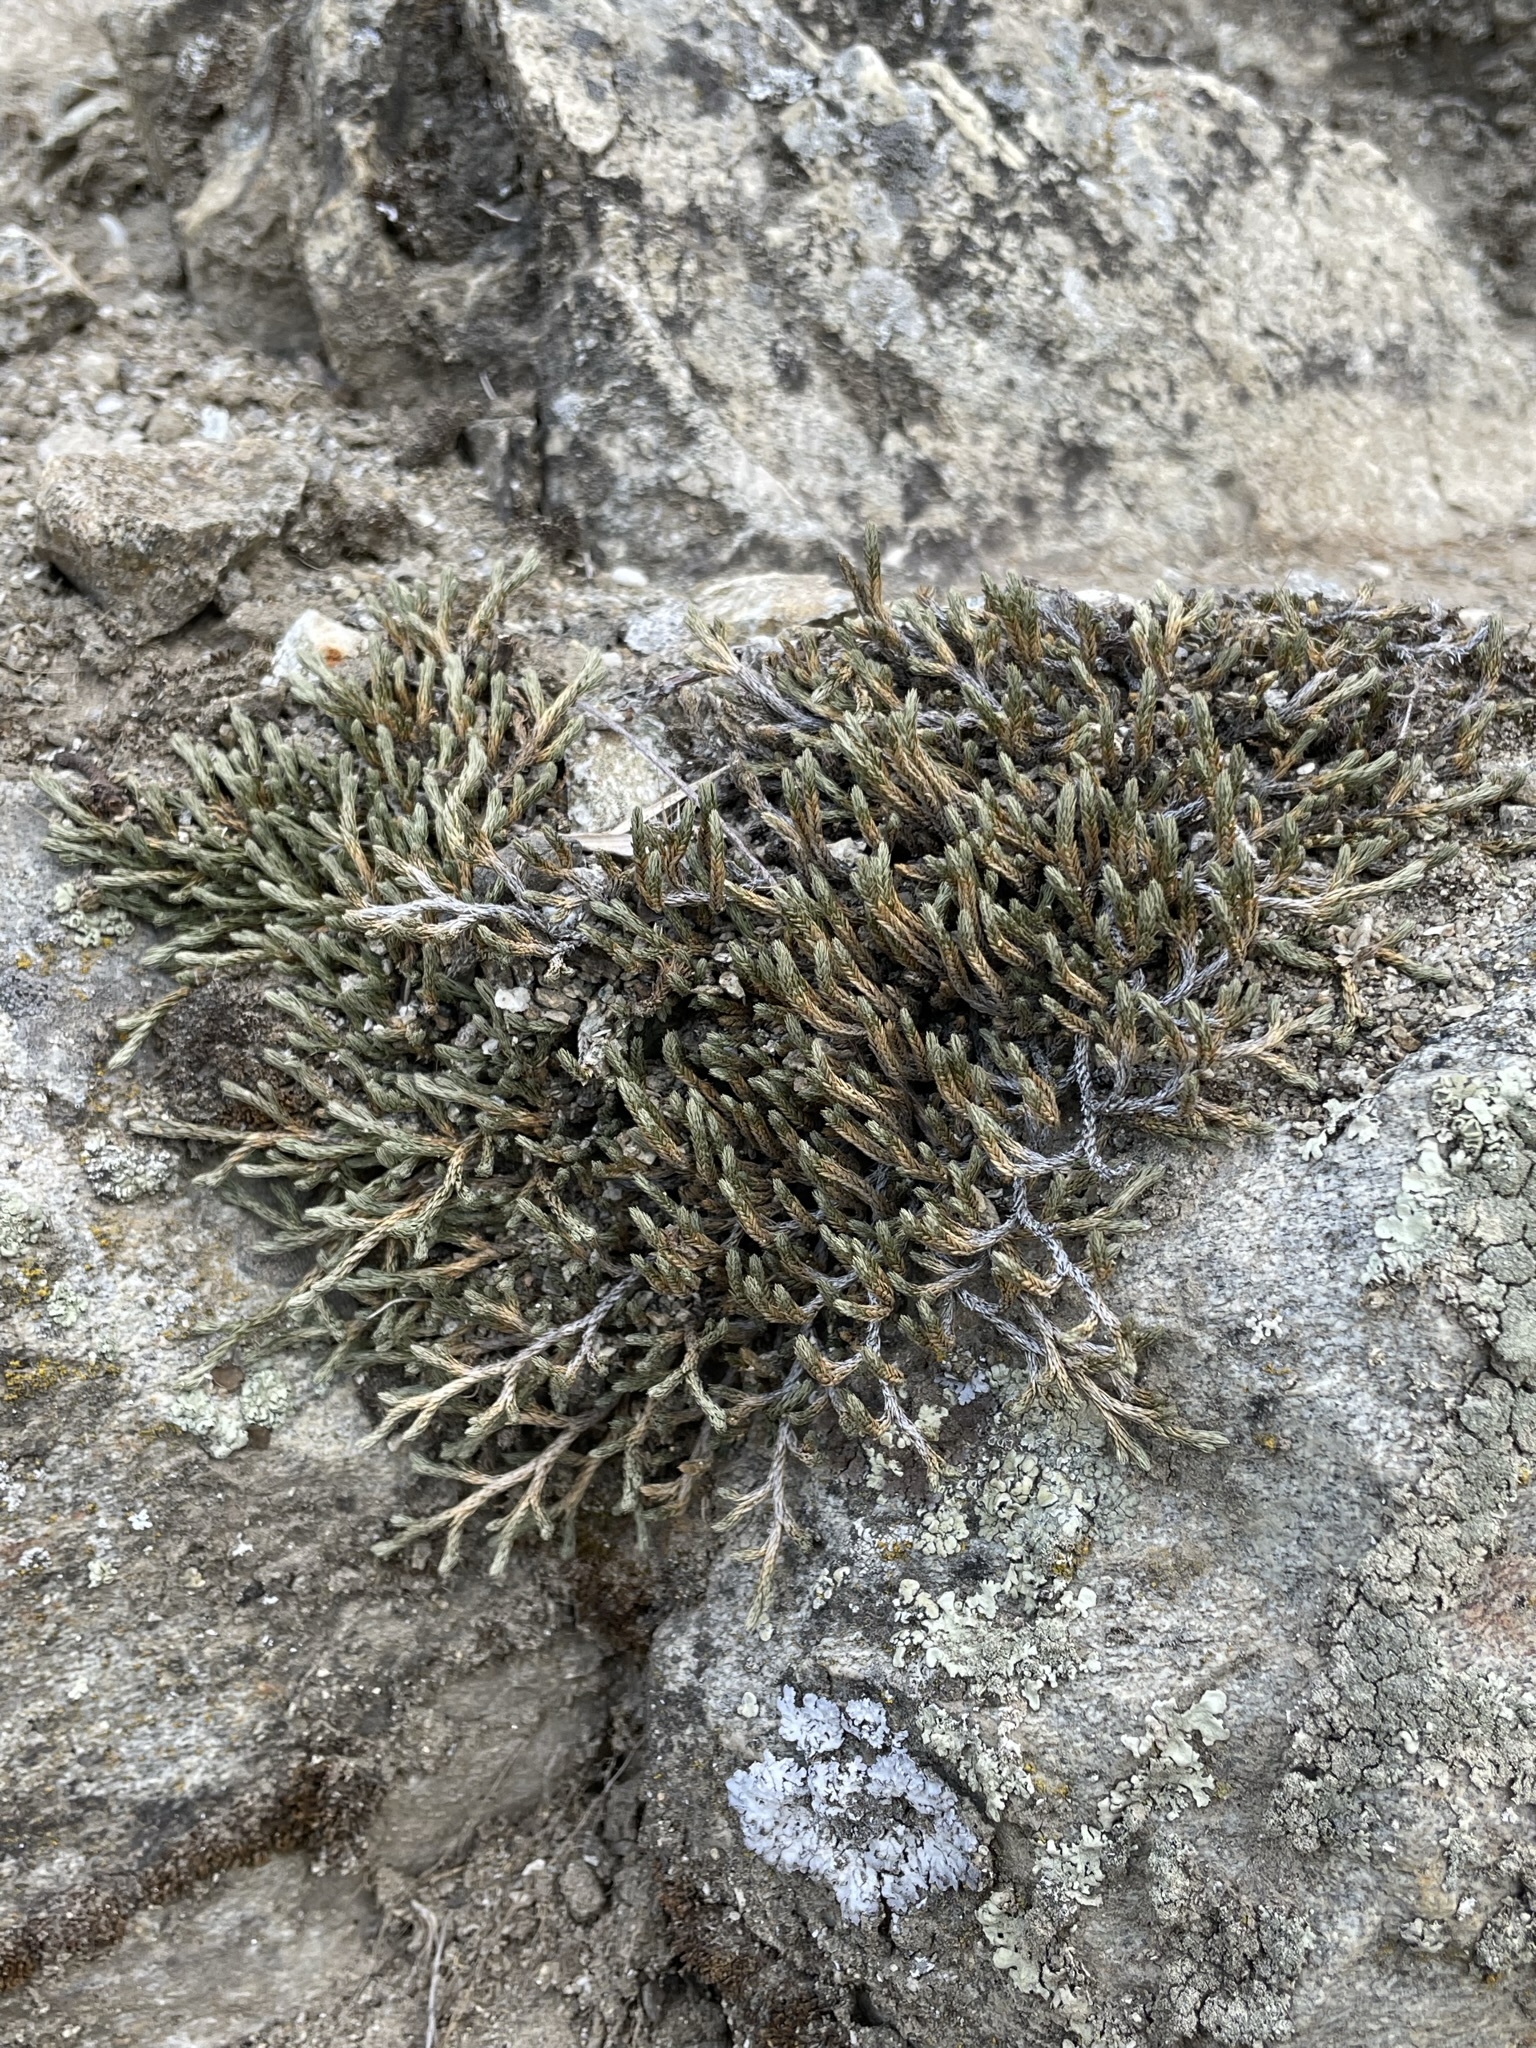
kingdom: Plantae
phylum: Tracheophyta
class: Lycopodiopsida
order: Selaginellales
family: Selaginellaceae
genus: Selaginella
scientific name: Selaginella wallacei
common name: Wallace's selaginella
